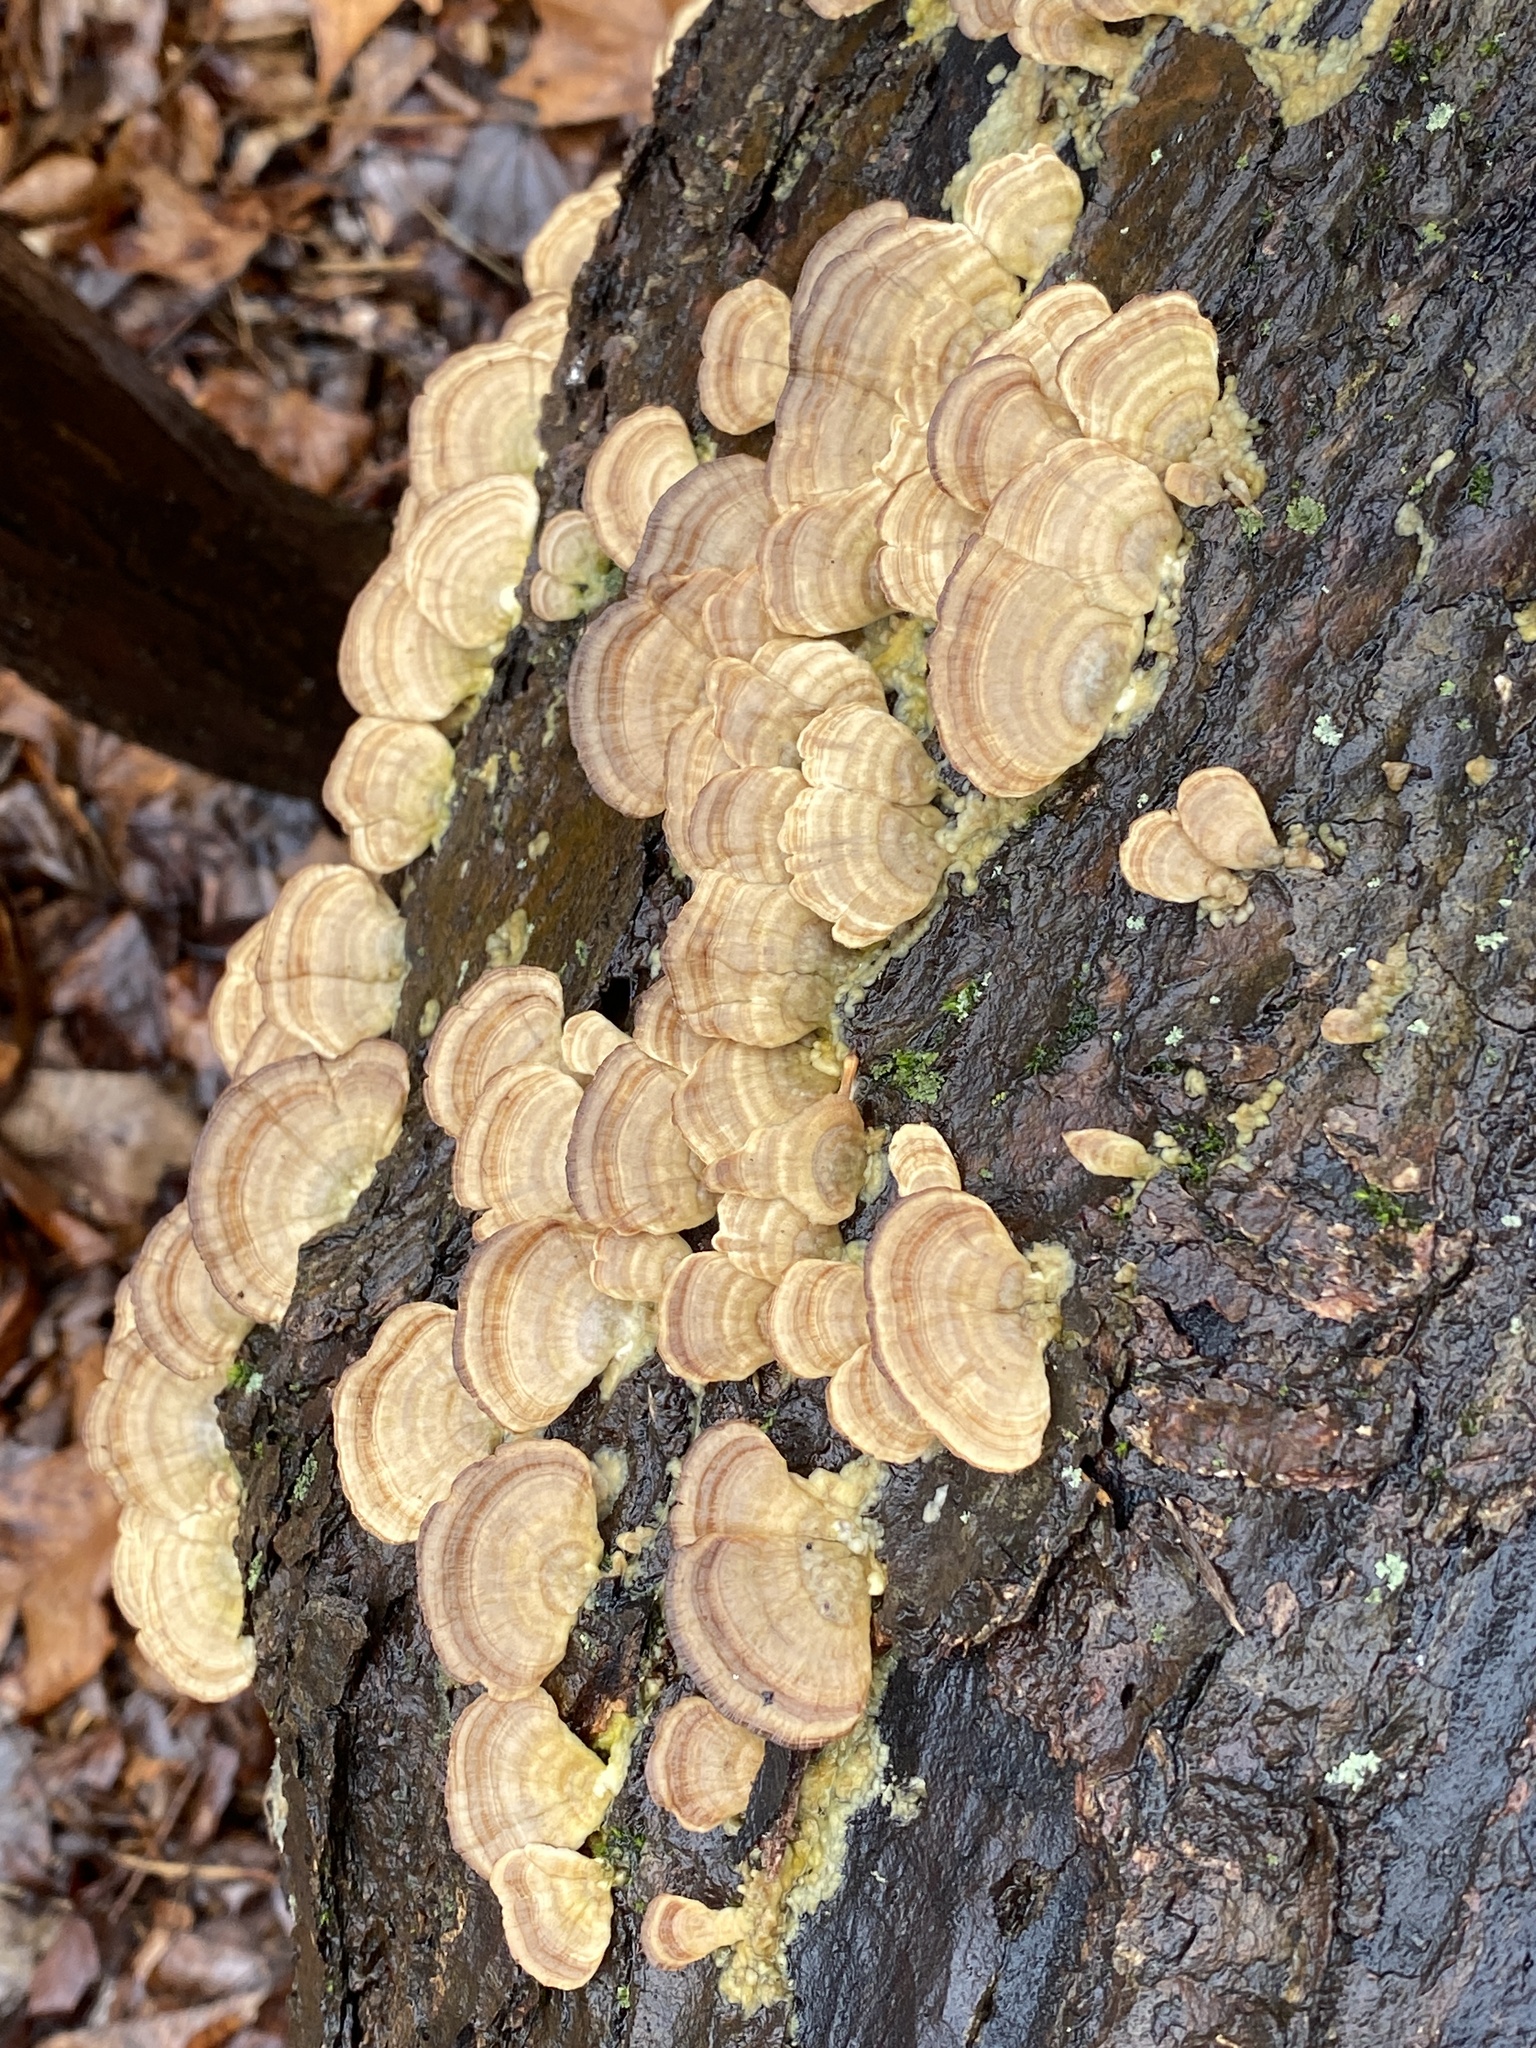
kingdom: Fungi
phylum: Basidiomycota
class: Agaricomycetes
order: Hymenochaetales
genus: Trichaptum
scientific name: Trichaptum biforme
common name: Violet-toothed polypore
